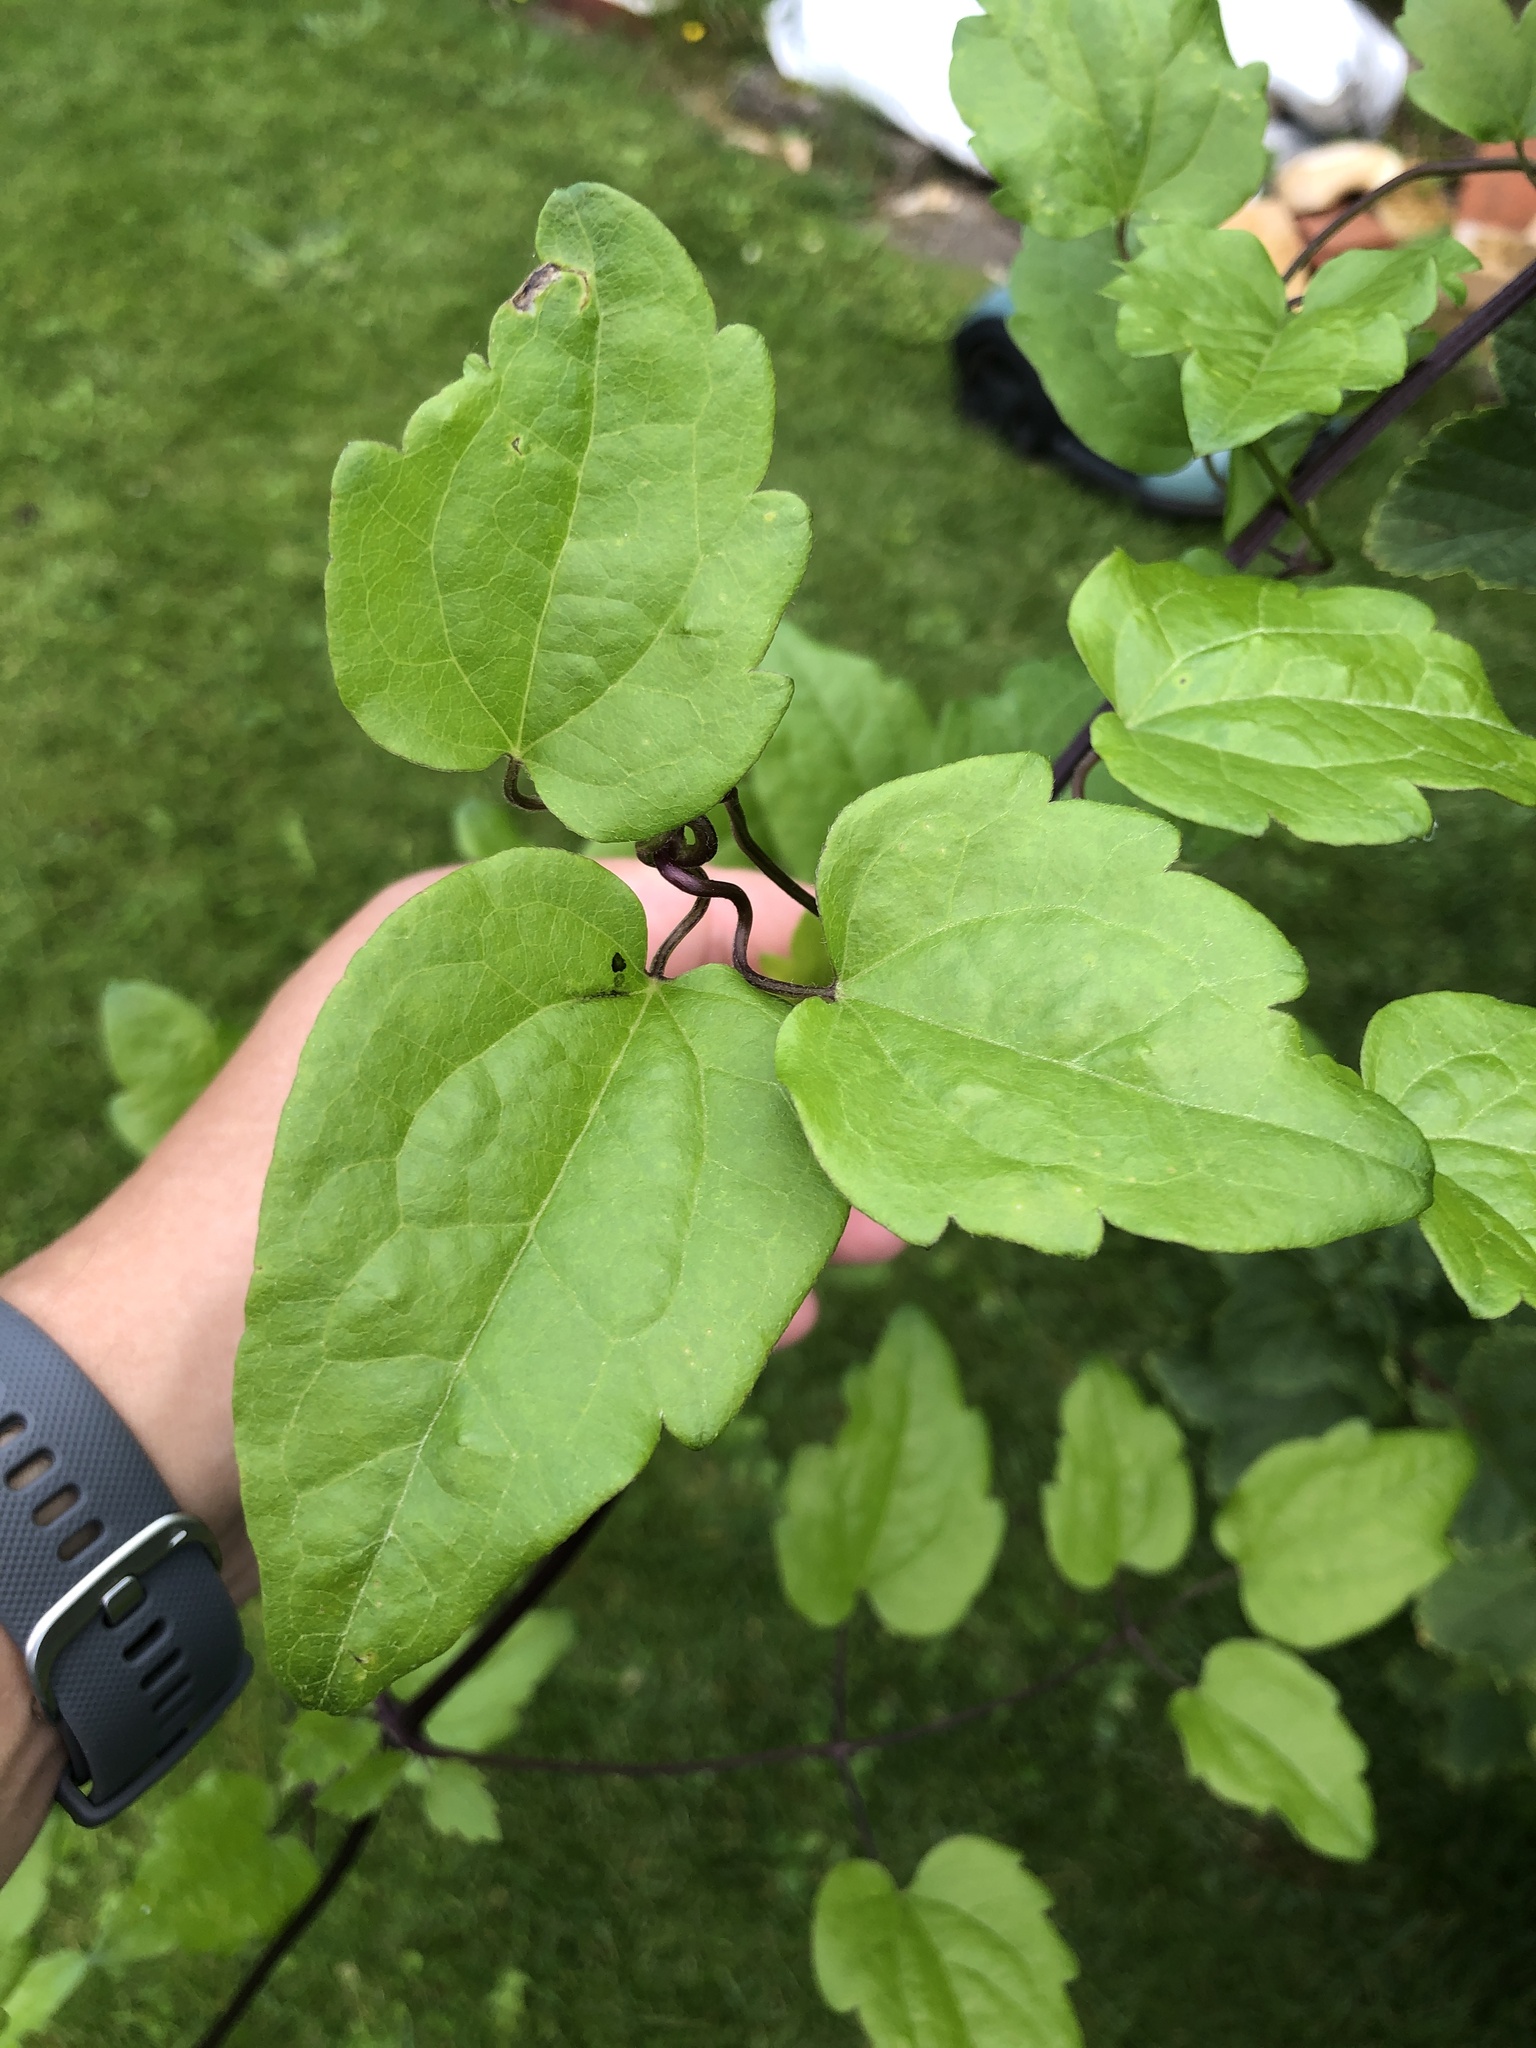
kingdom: Plantae
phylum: Tracheophyta
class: Magnoliopsida
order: Ranunculales
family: Ranunculaceae
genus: Clematis
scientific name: Clematis vitalba
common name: Evergreen clematis
